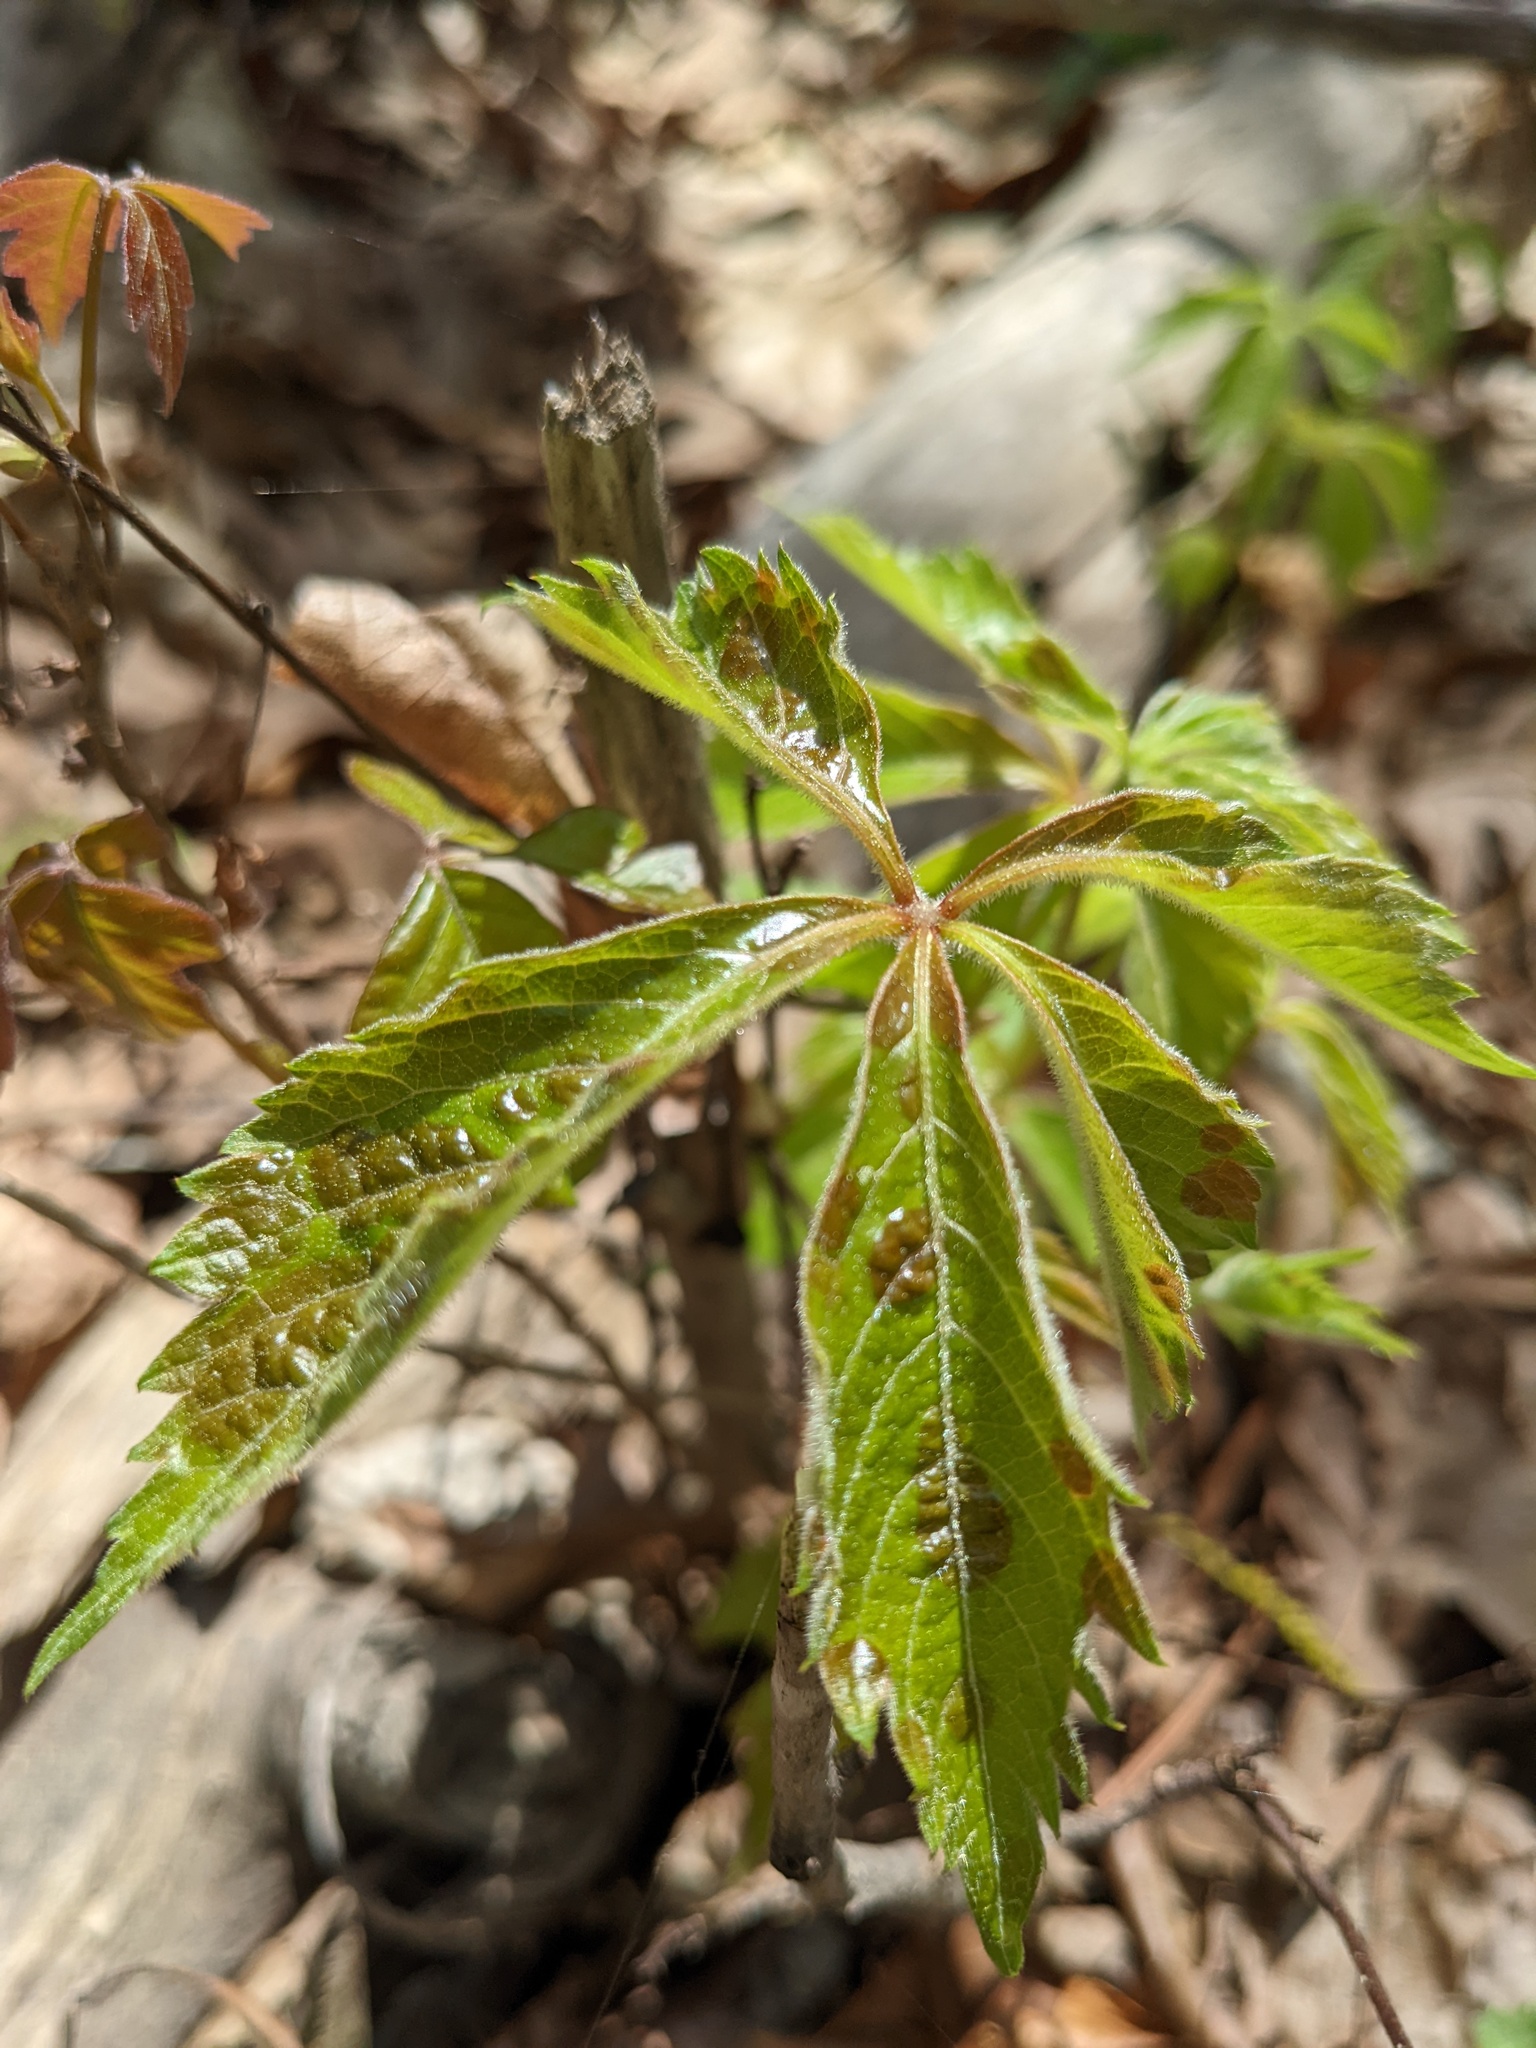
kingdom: Plantae
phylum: Tracheophyta
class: Magnoliopsida
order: Vitales
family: Vitaceae
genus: Parthenocissus
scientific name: Parthenocissus quinquefolia
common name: Virginia-creeper
